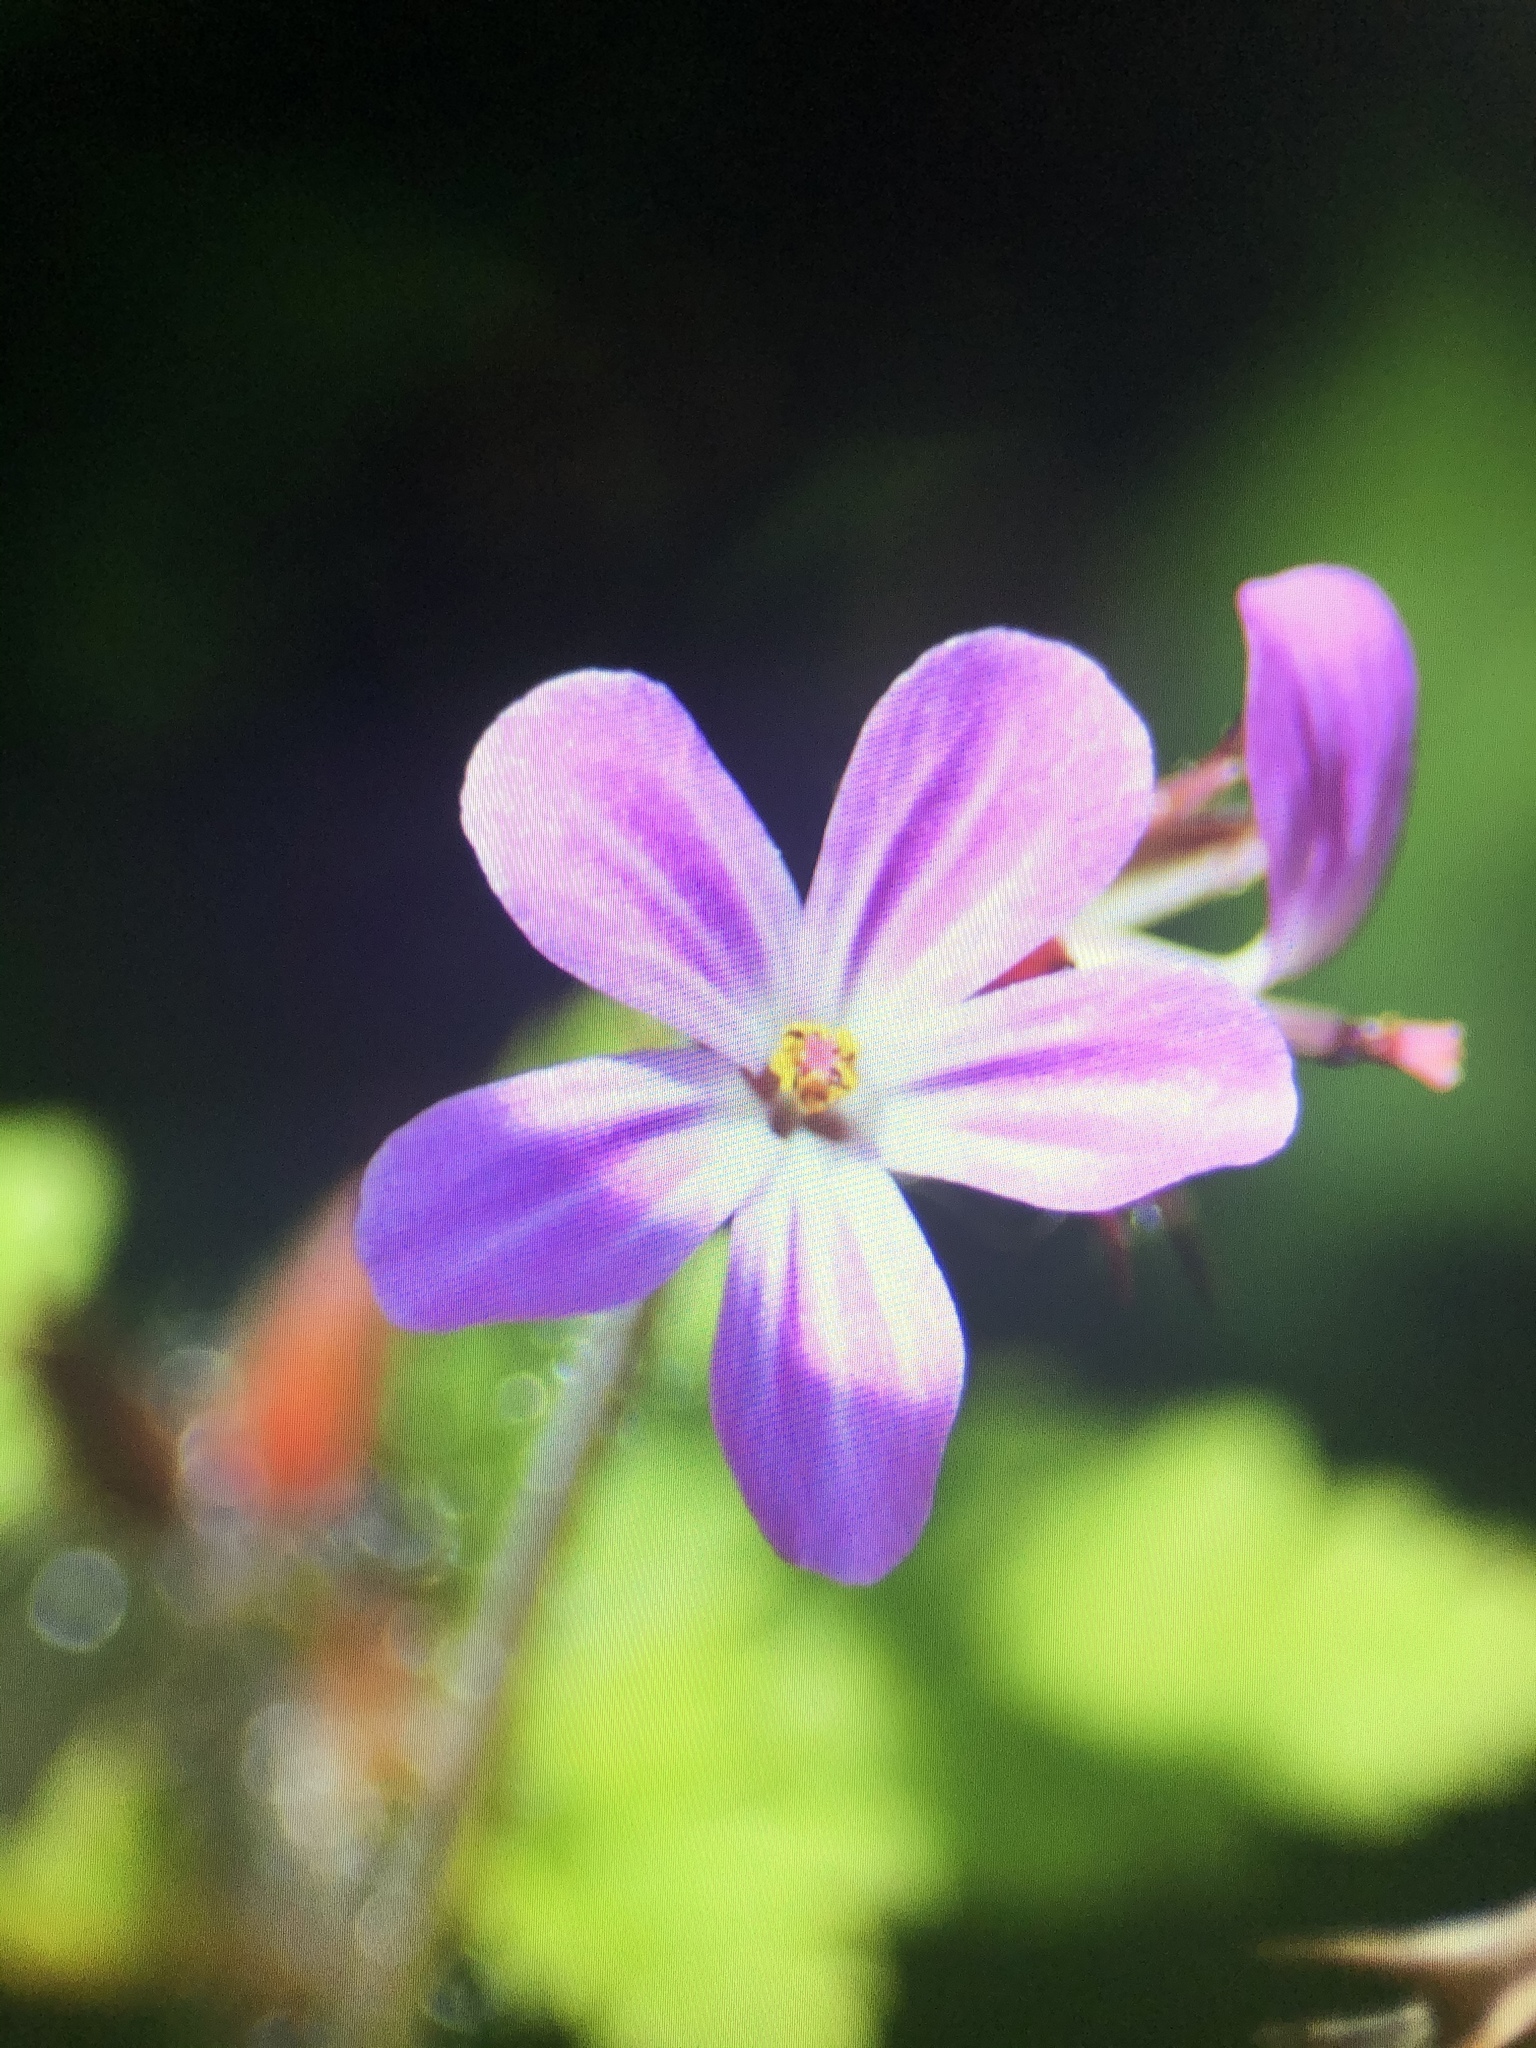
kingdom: Plantae
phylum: Tracheophyta
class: Magnoliopsida
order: Geraniales
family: Geraniaceae
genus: Geranium
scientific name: Geranium robertianum
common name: Herb-robert
